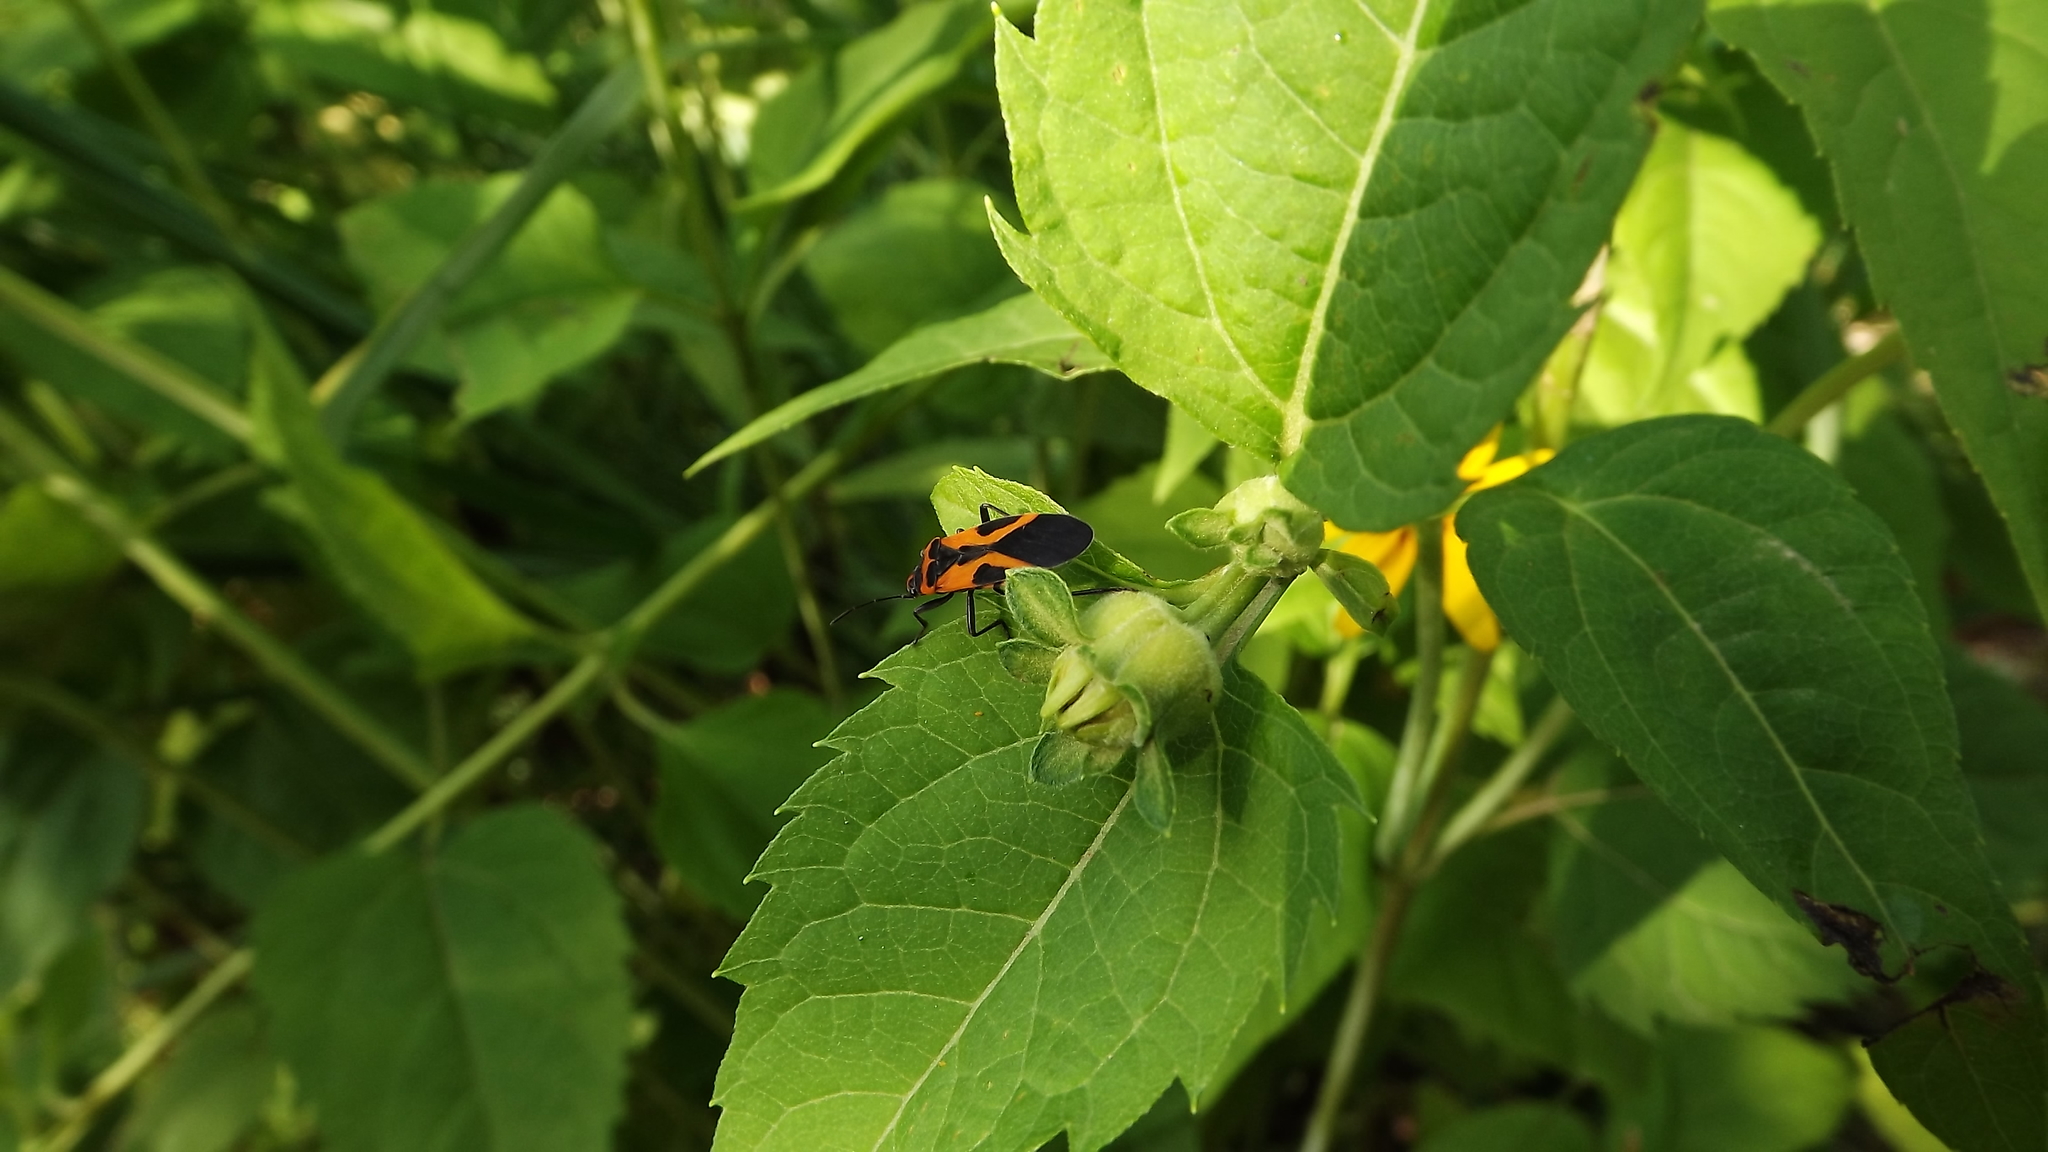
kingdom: Animalia
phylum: Arthropoda
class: Insecta
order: Hemiptera
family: Lygaeidae
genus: Lygaeus
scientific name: Lygaeus turcicus
